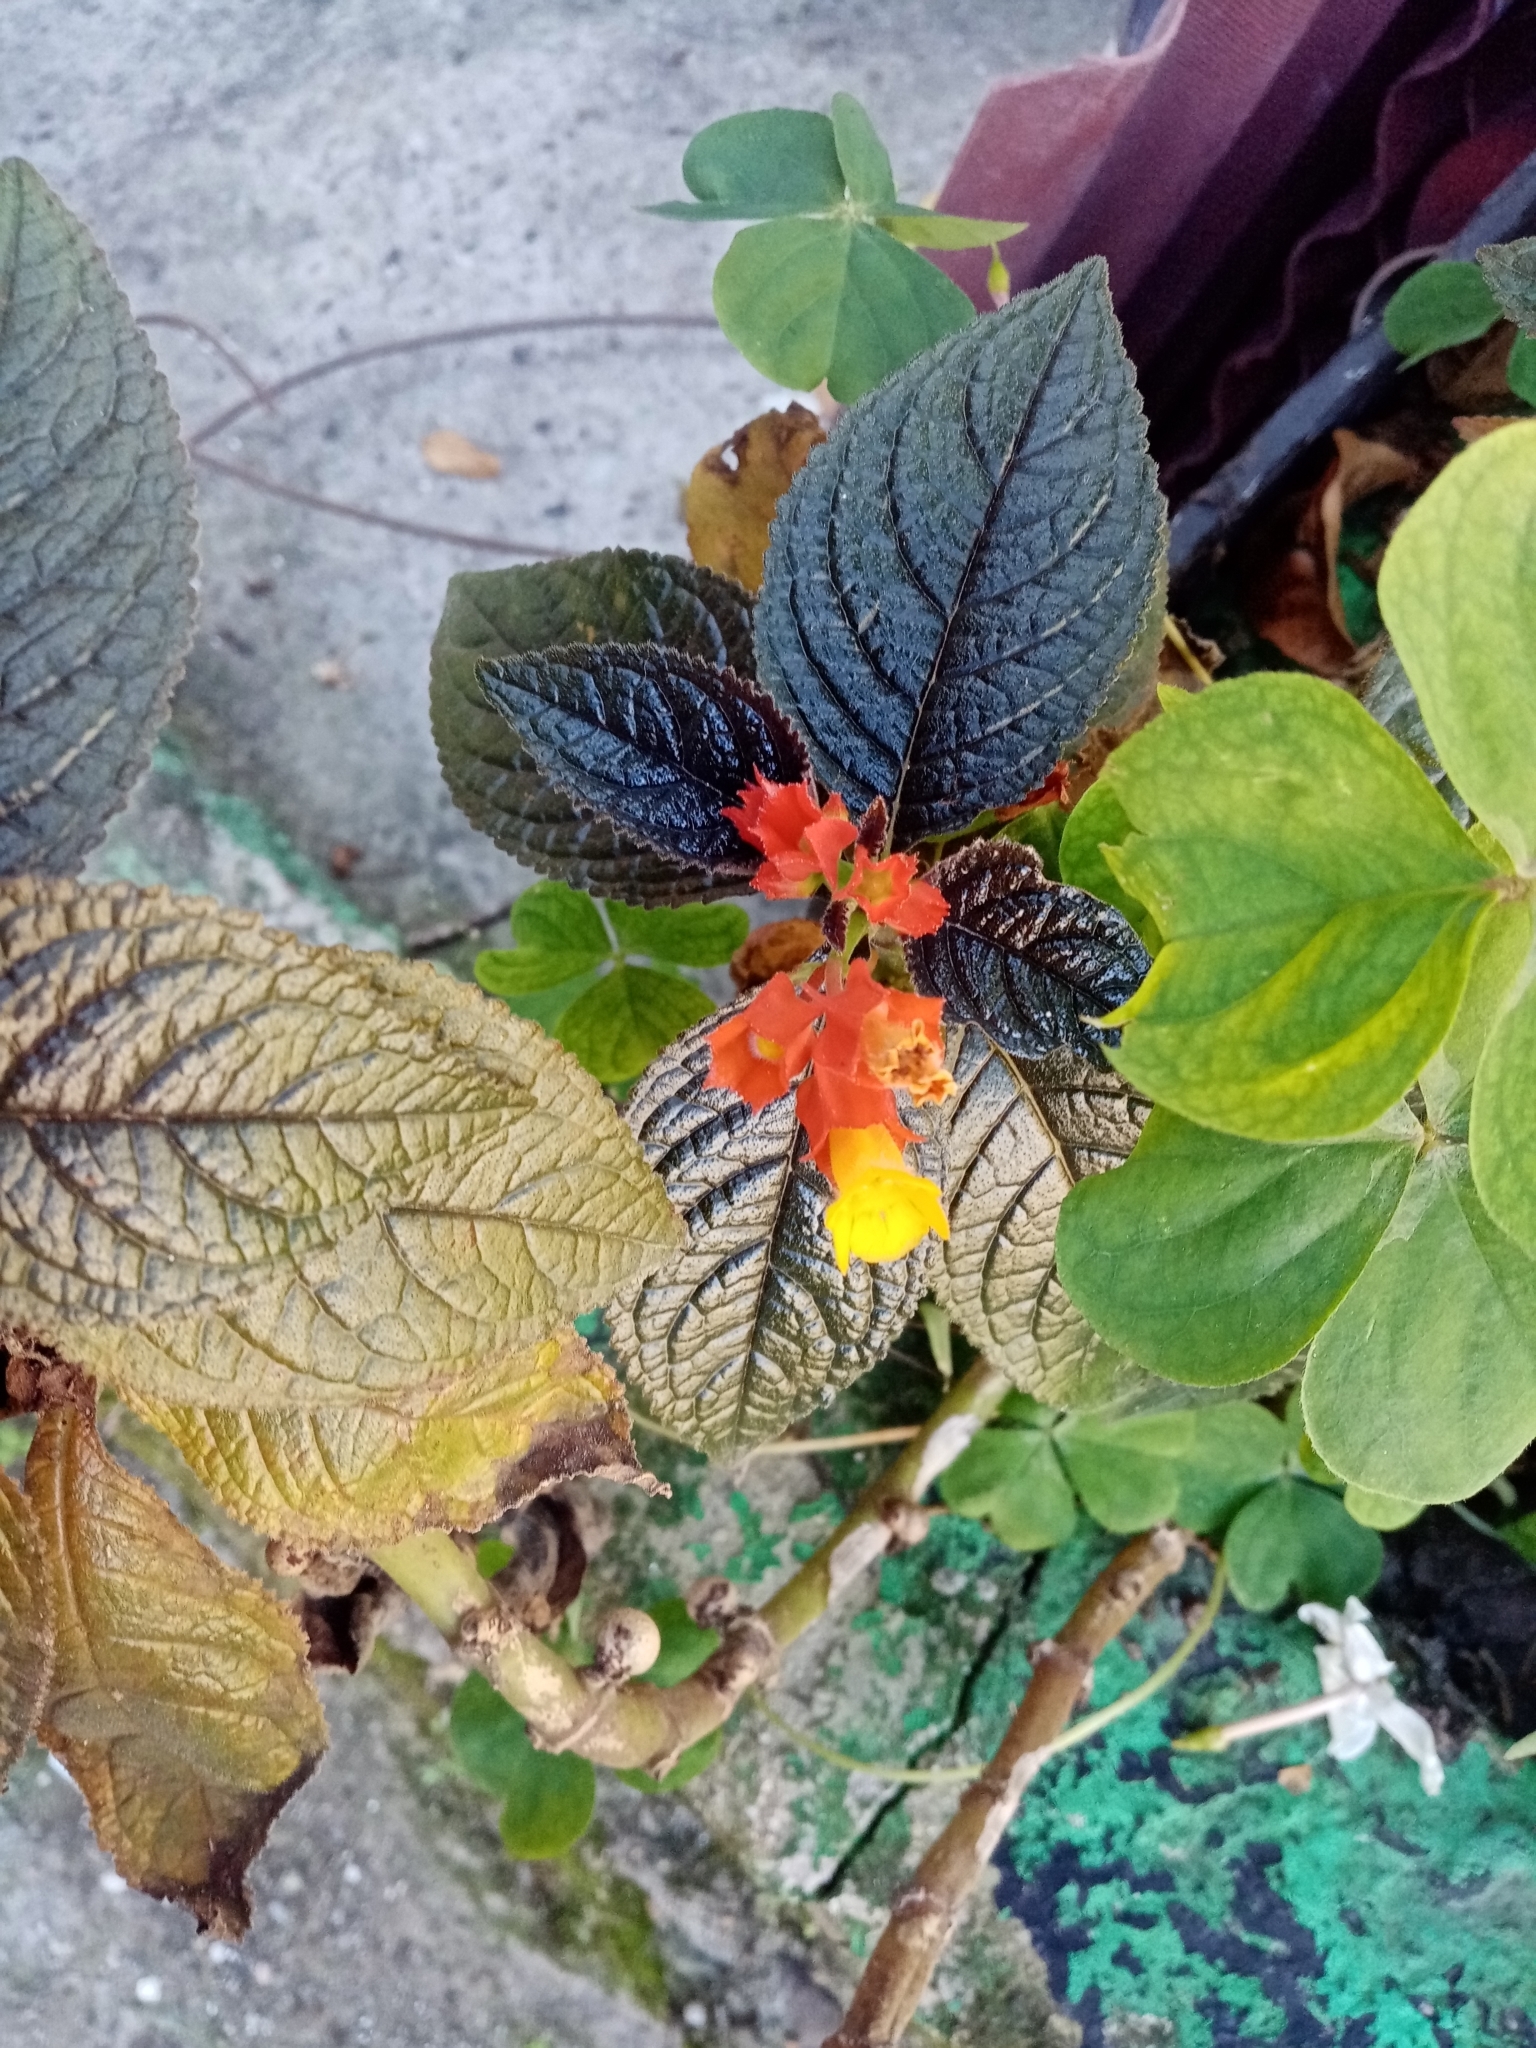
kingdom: Plantae
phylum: Tracheophyta
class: Magnoliopsida
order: Lamiales
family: Gesneriaceae
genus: Chrysothemis
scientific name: Chrysothemis pulchella
